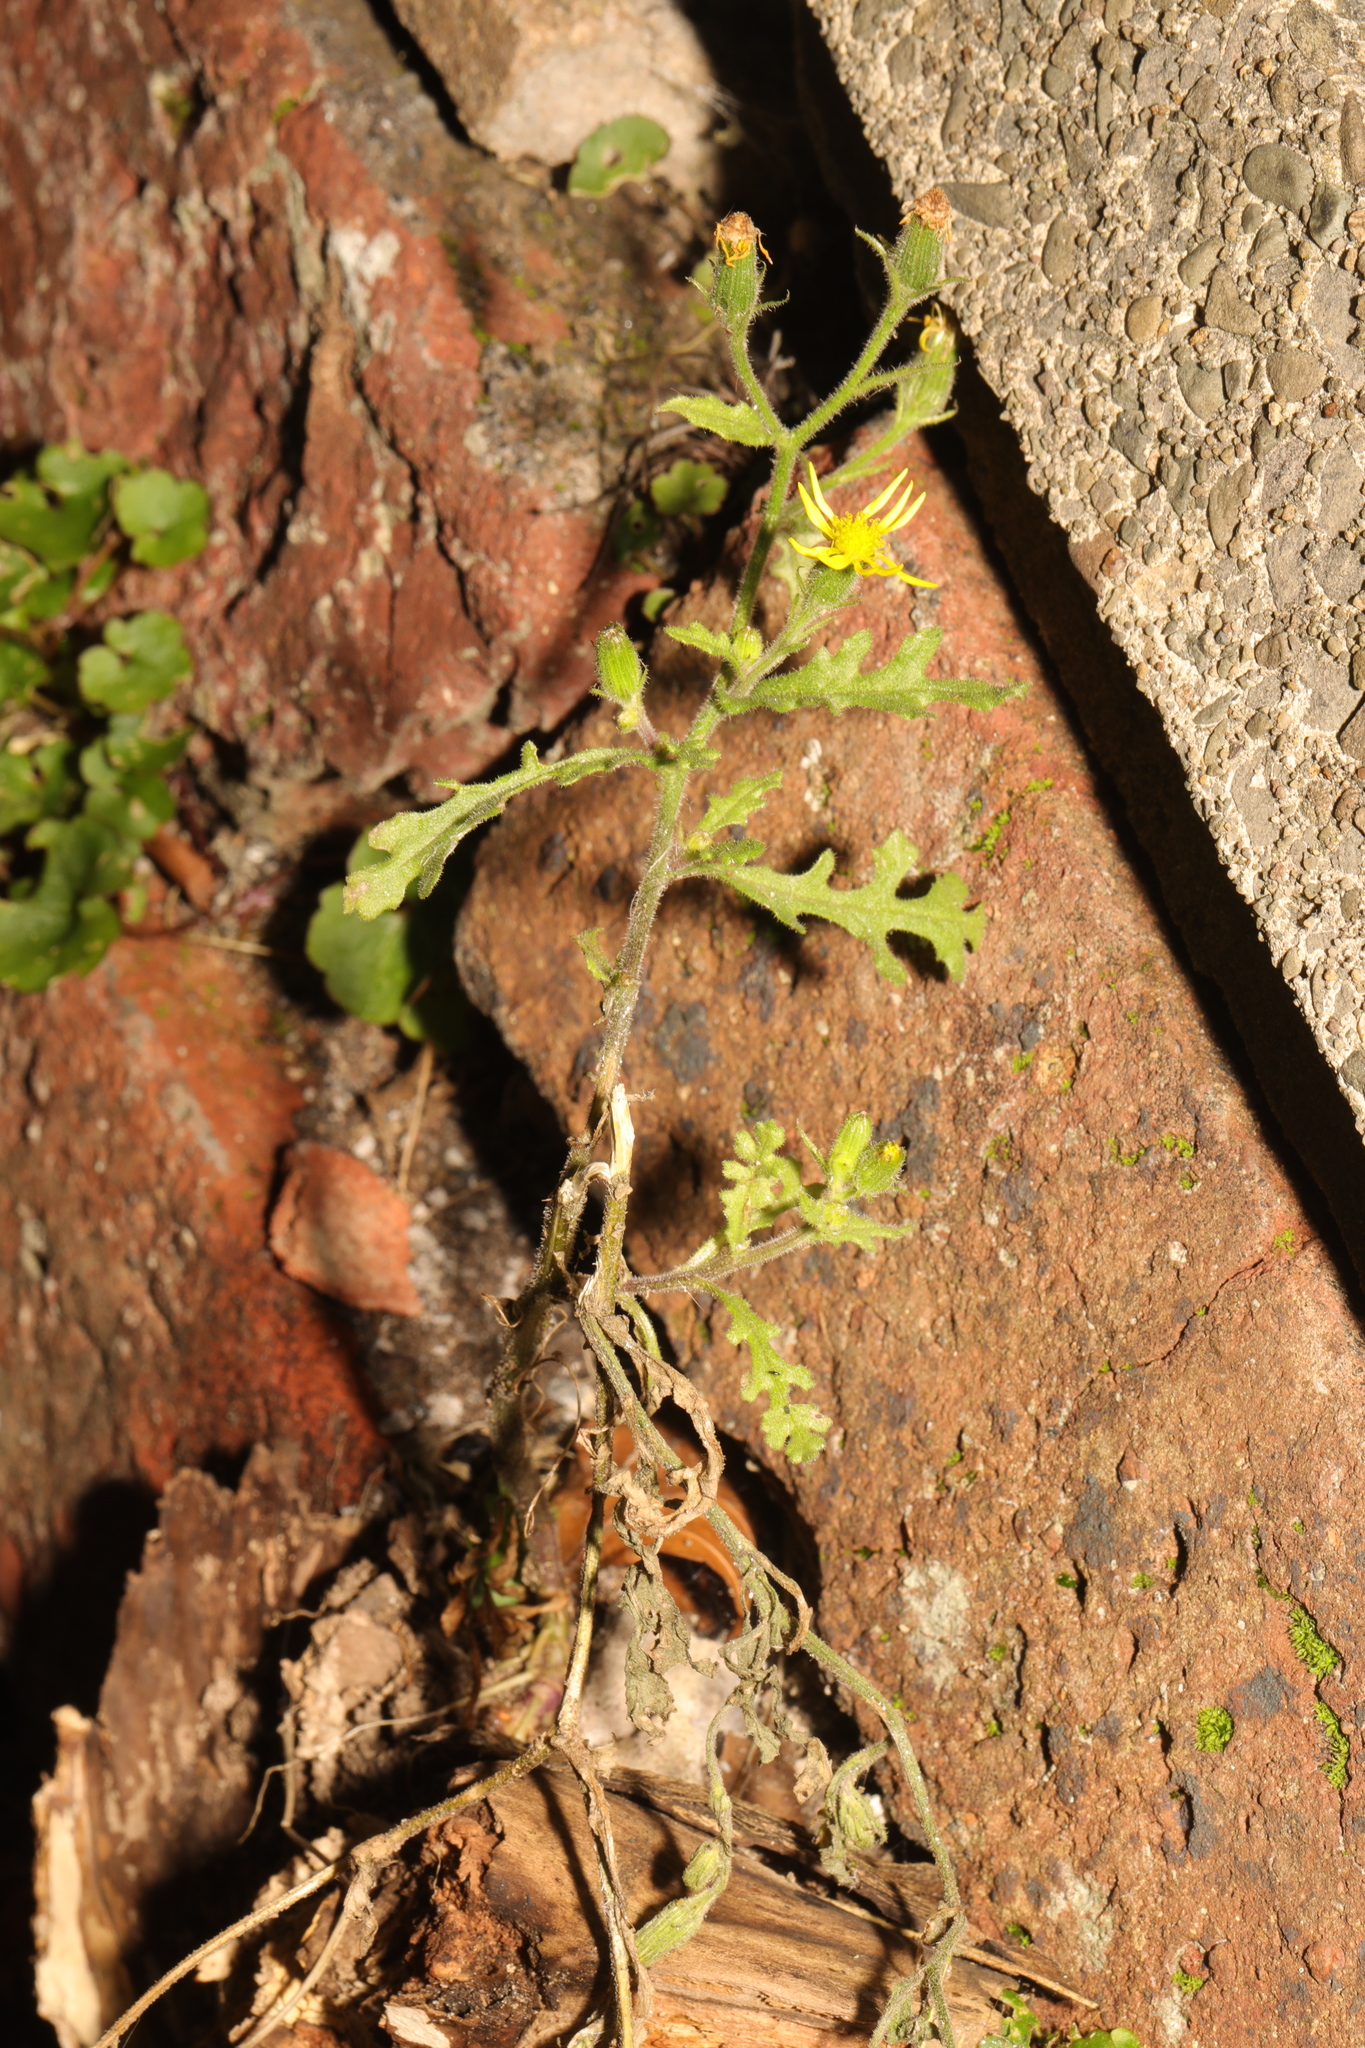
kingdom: Plantae
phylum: Tracheophyta
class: Magnoliopsida
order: Asterales
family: Asteraceae
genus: Senecio
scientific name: Senecio viscosus
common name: Sticky groundsel
